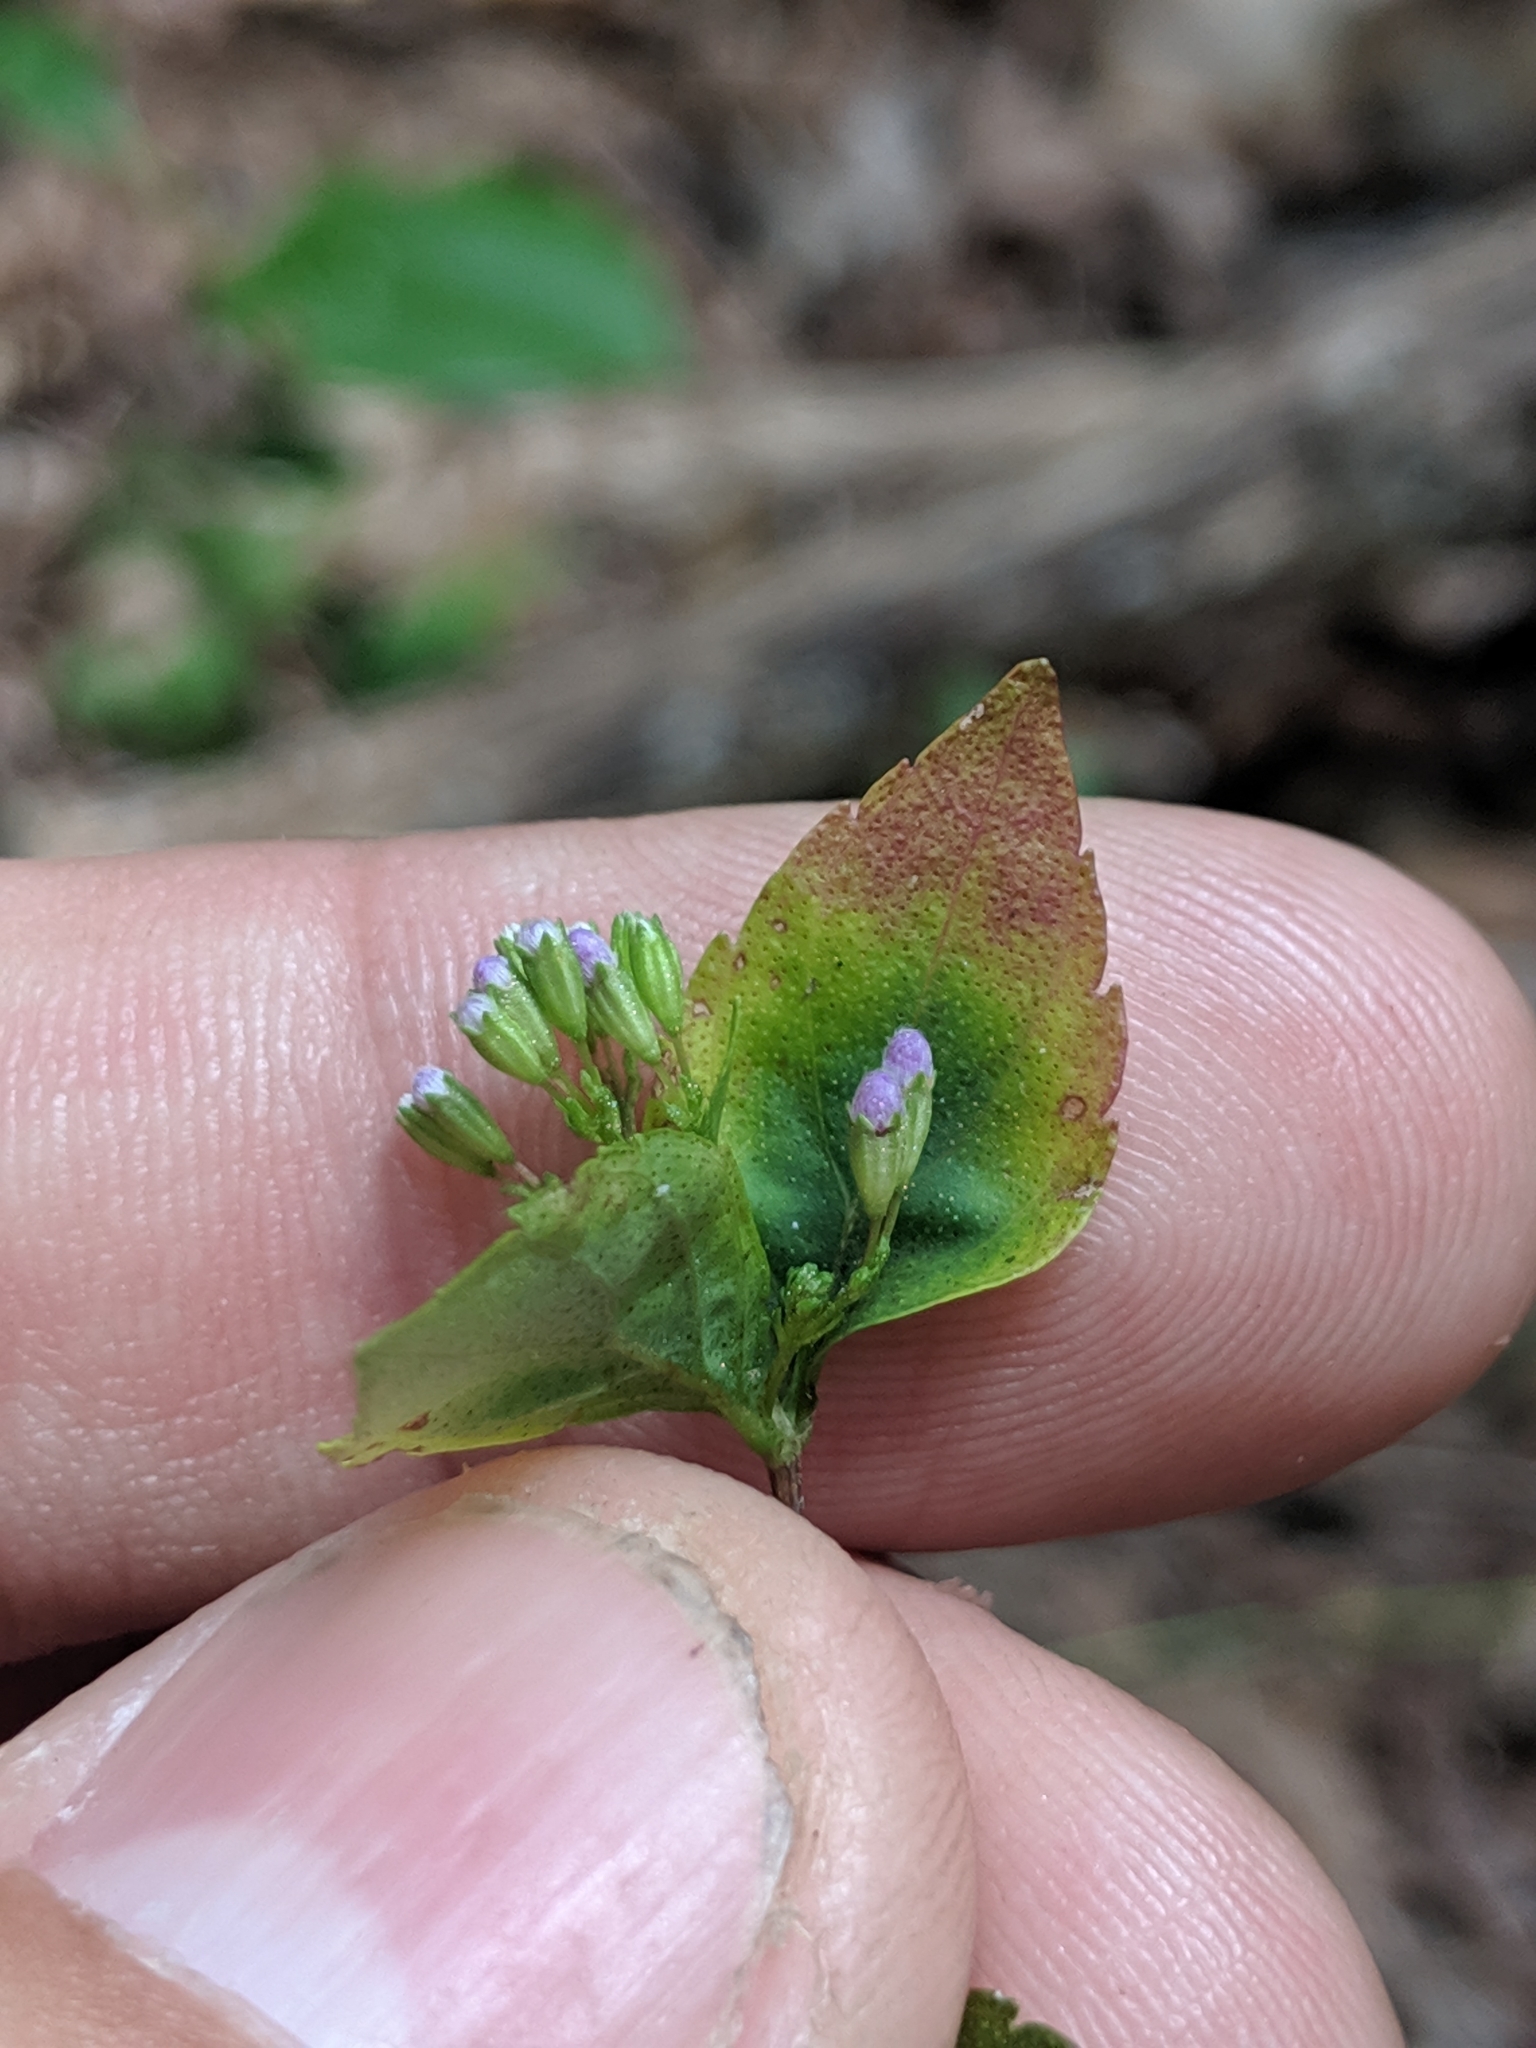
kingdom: Plantae
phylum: Tracheophyta
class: Magnoliopsida
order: Lamiales
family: Lamiaceae
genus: Cunila
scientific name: Cunila origanoides
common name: American dittany
